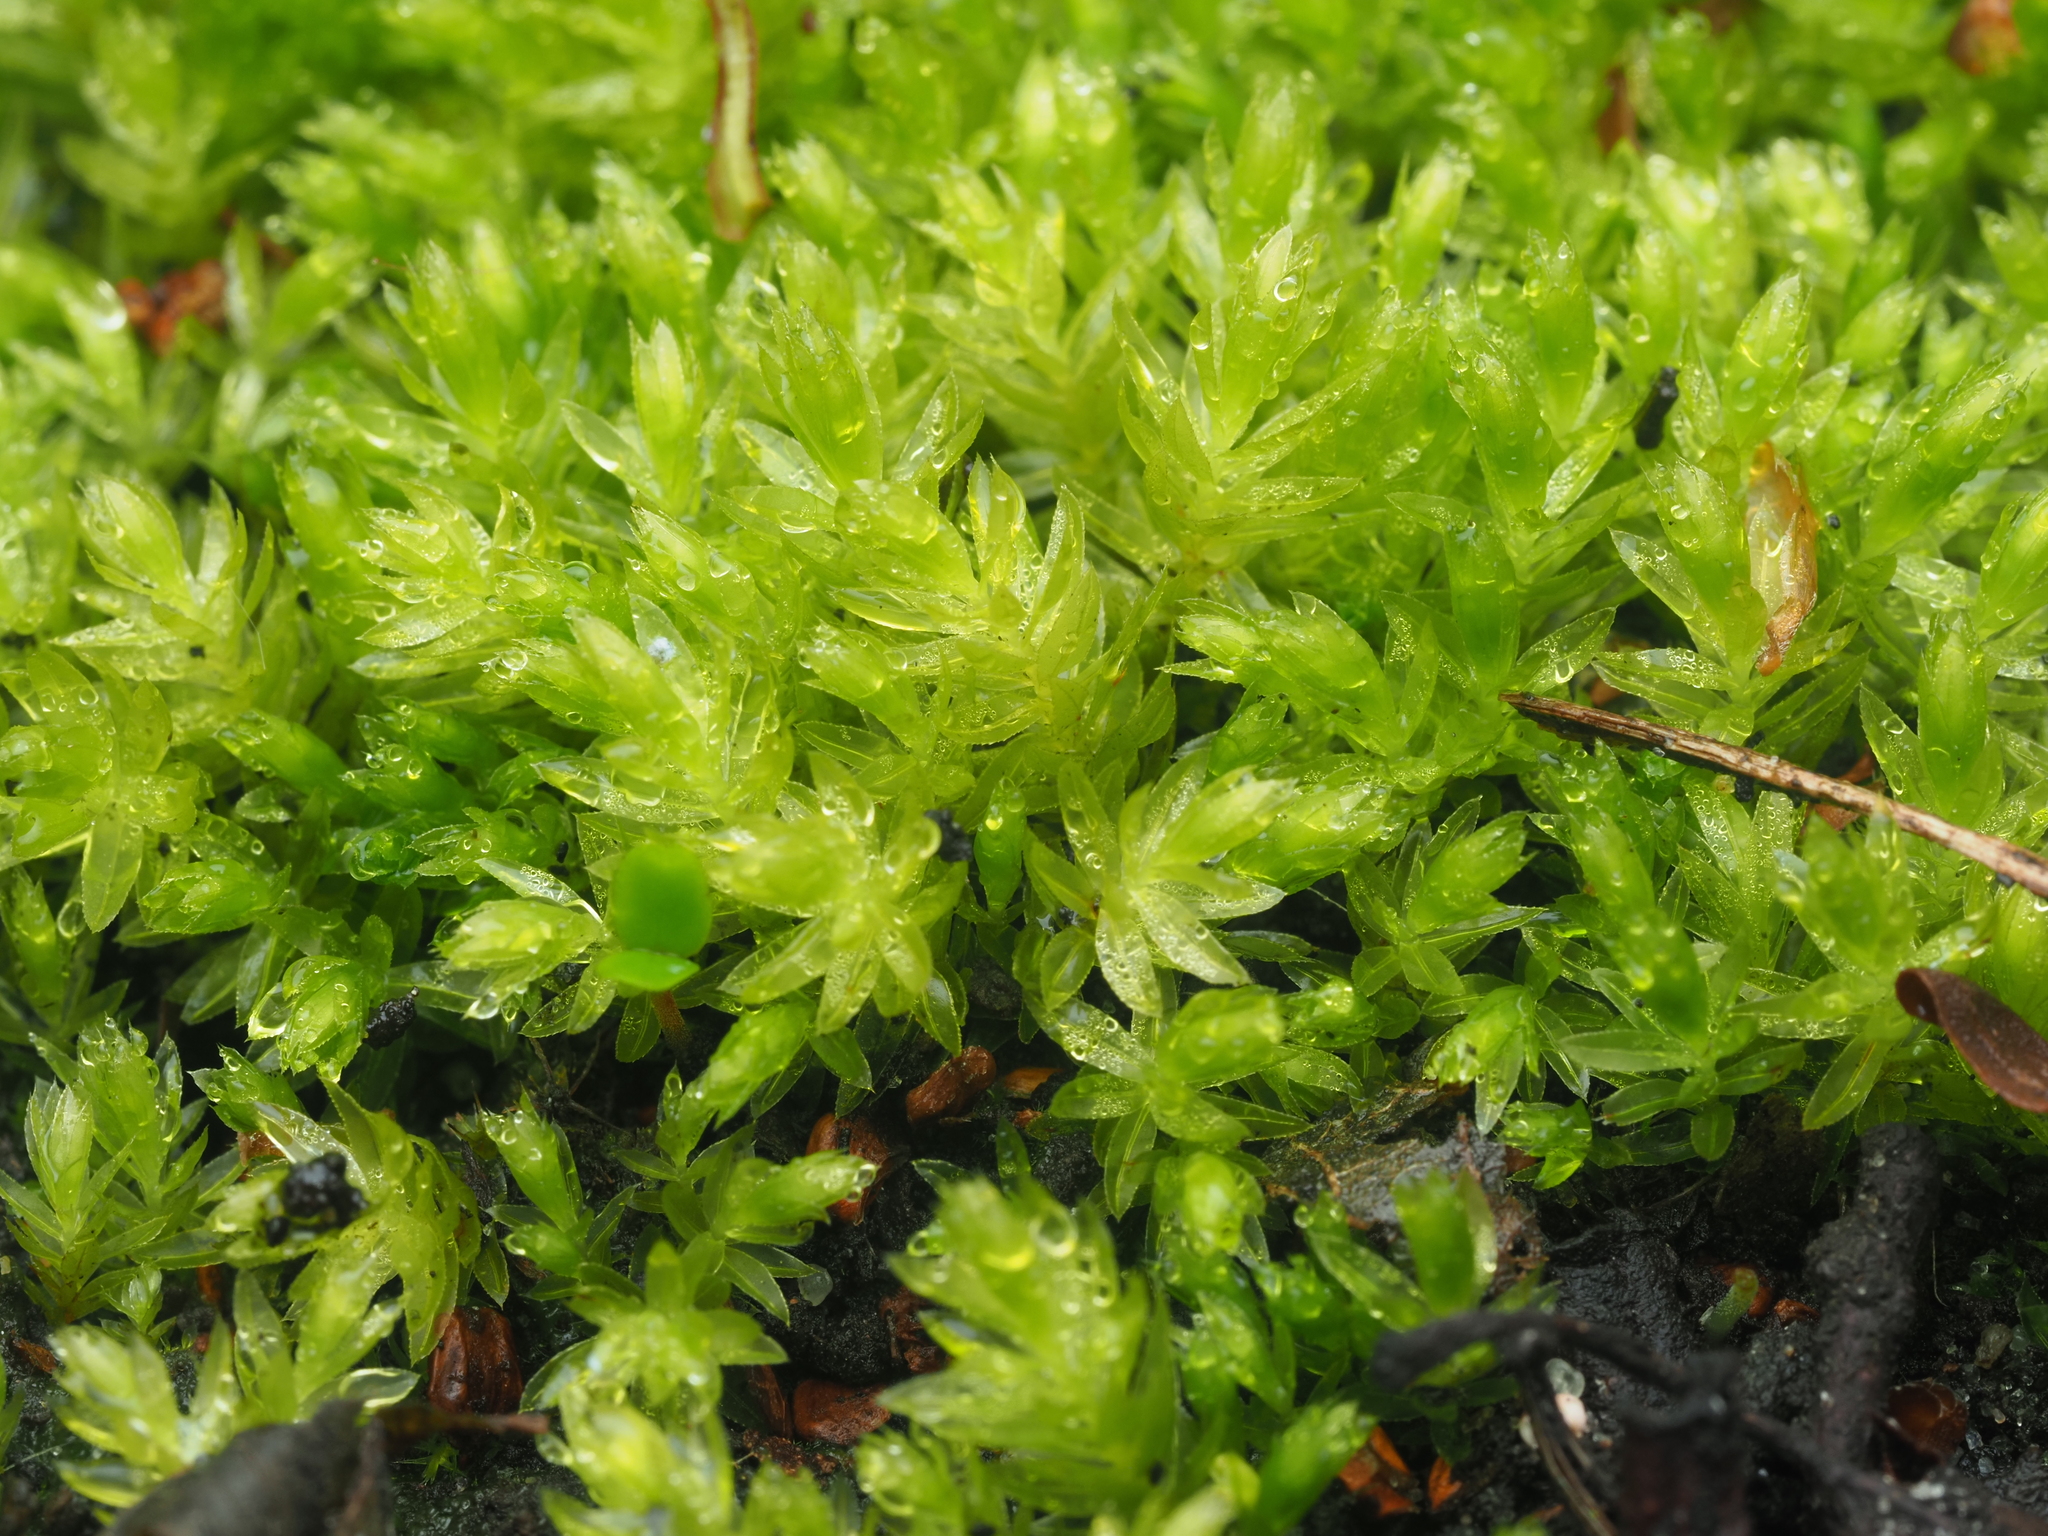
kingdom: Plantae
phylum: Bryophyta
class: Bryopsida
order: Bryales
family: Mniaceae
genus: Mnium
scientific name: Mnium hornum
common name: Swan's-neck leafy moss
